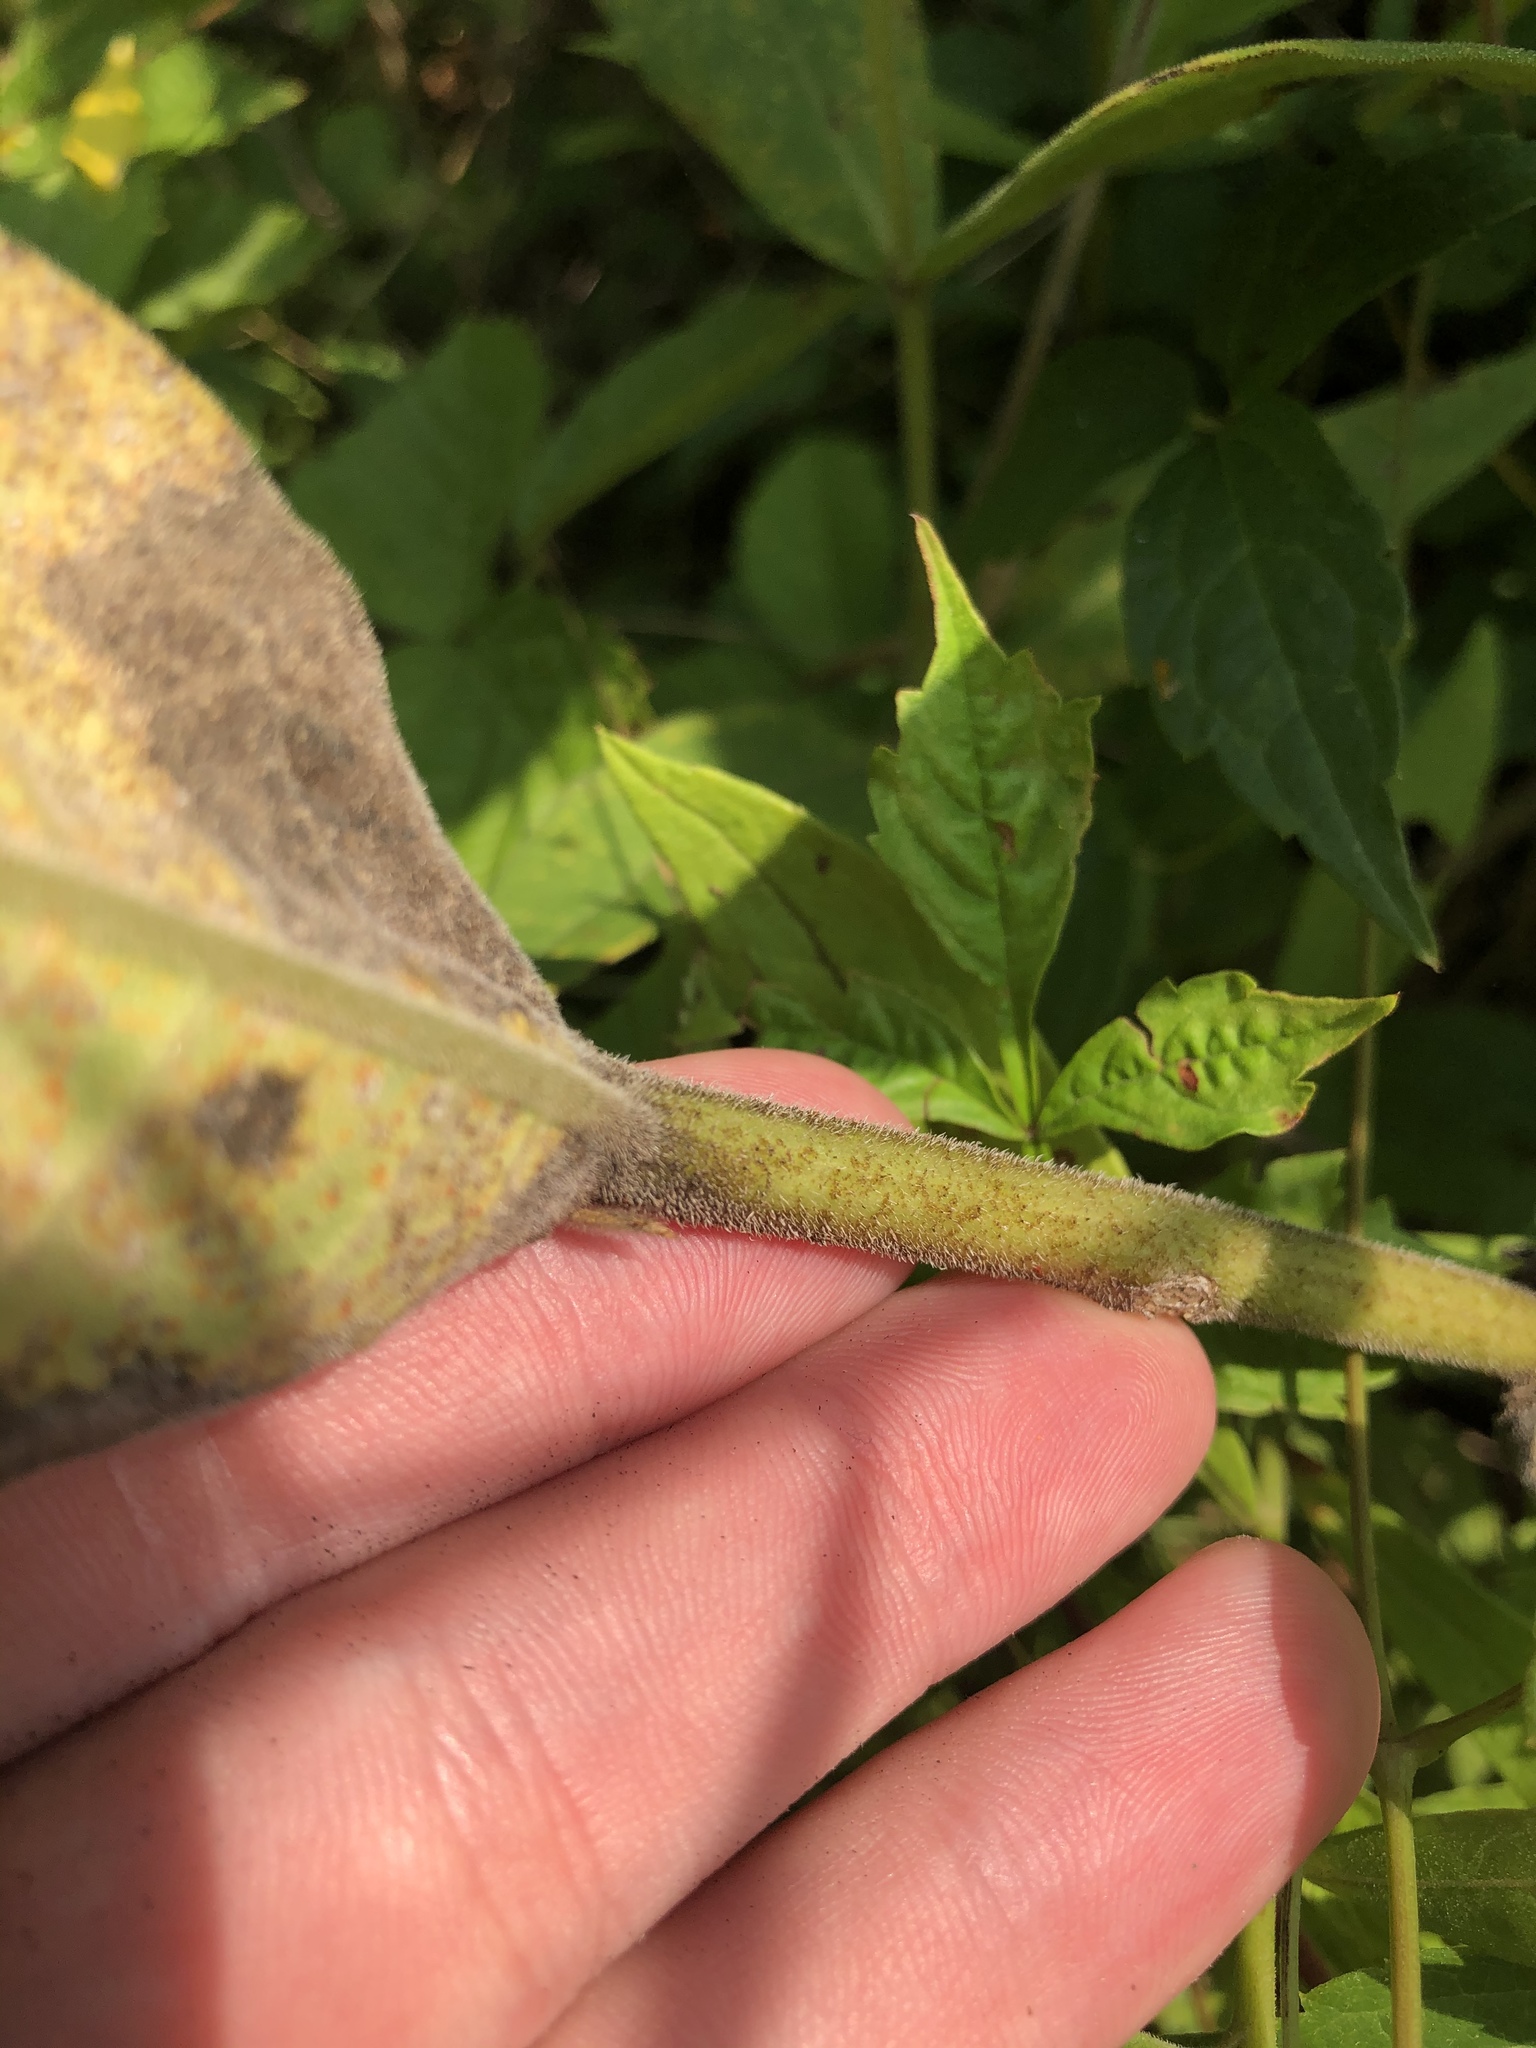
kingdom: Plantae
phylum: Tracheophyta
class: Magnoliopsida
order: Asterales
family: Asteraceae
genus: Silphium
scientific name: Silphium integrifolium
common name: Whole-leaf rosinweed
